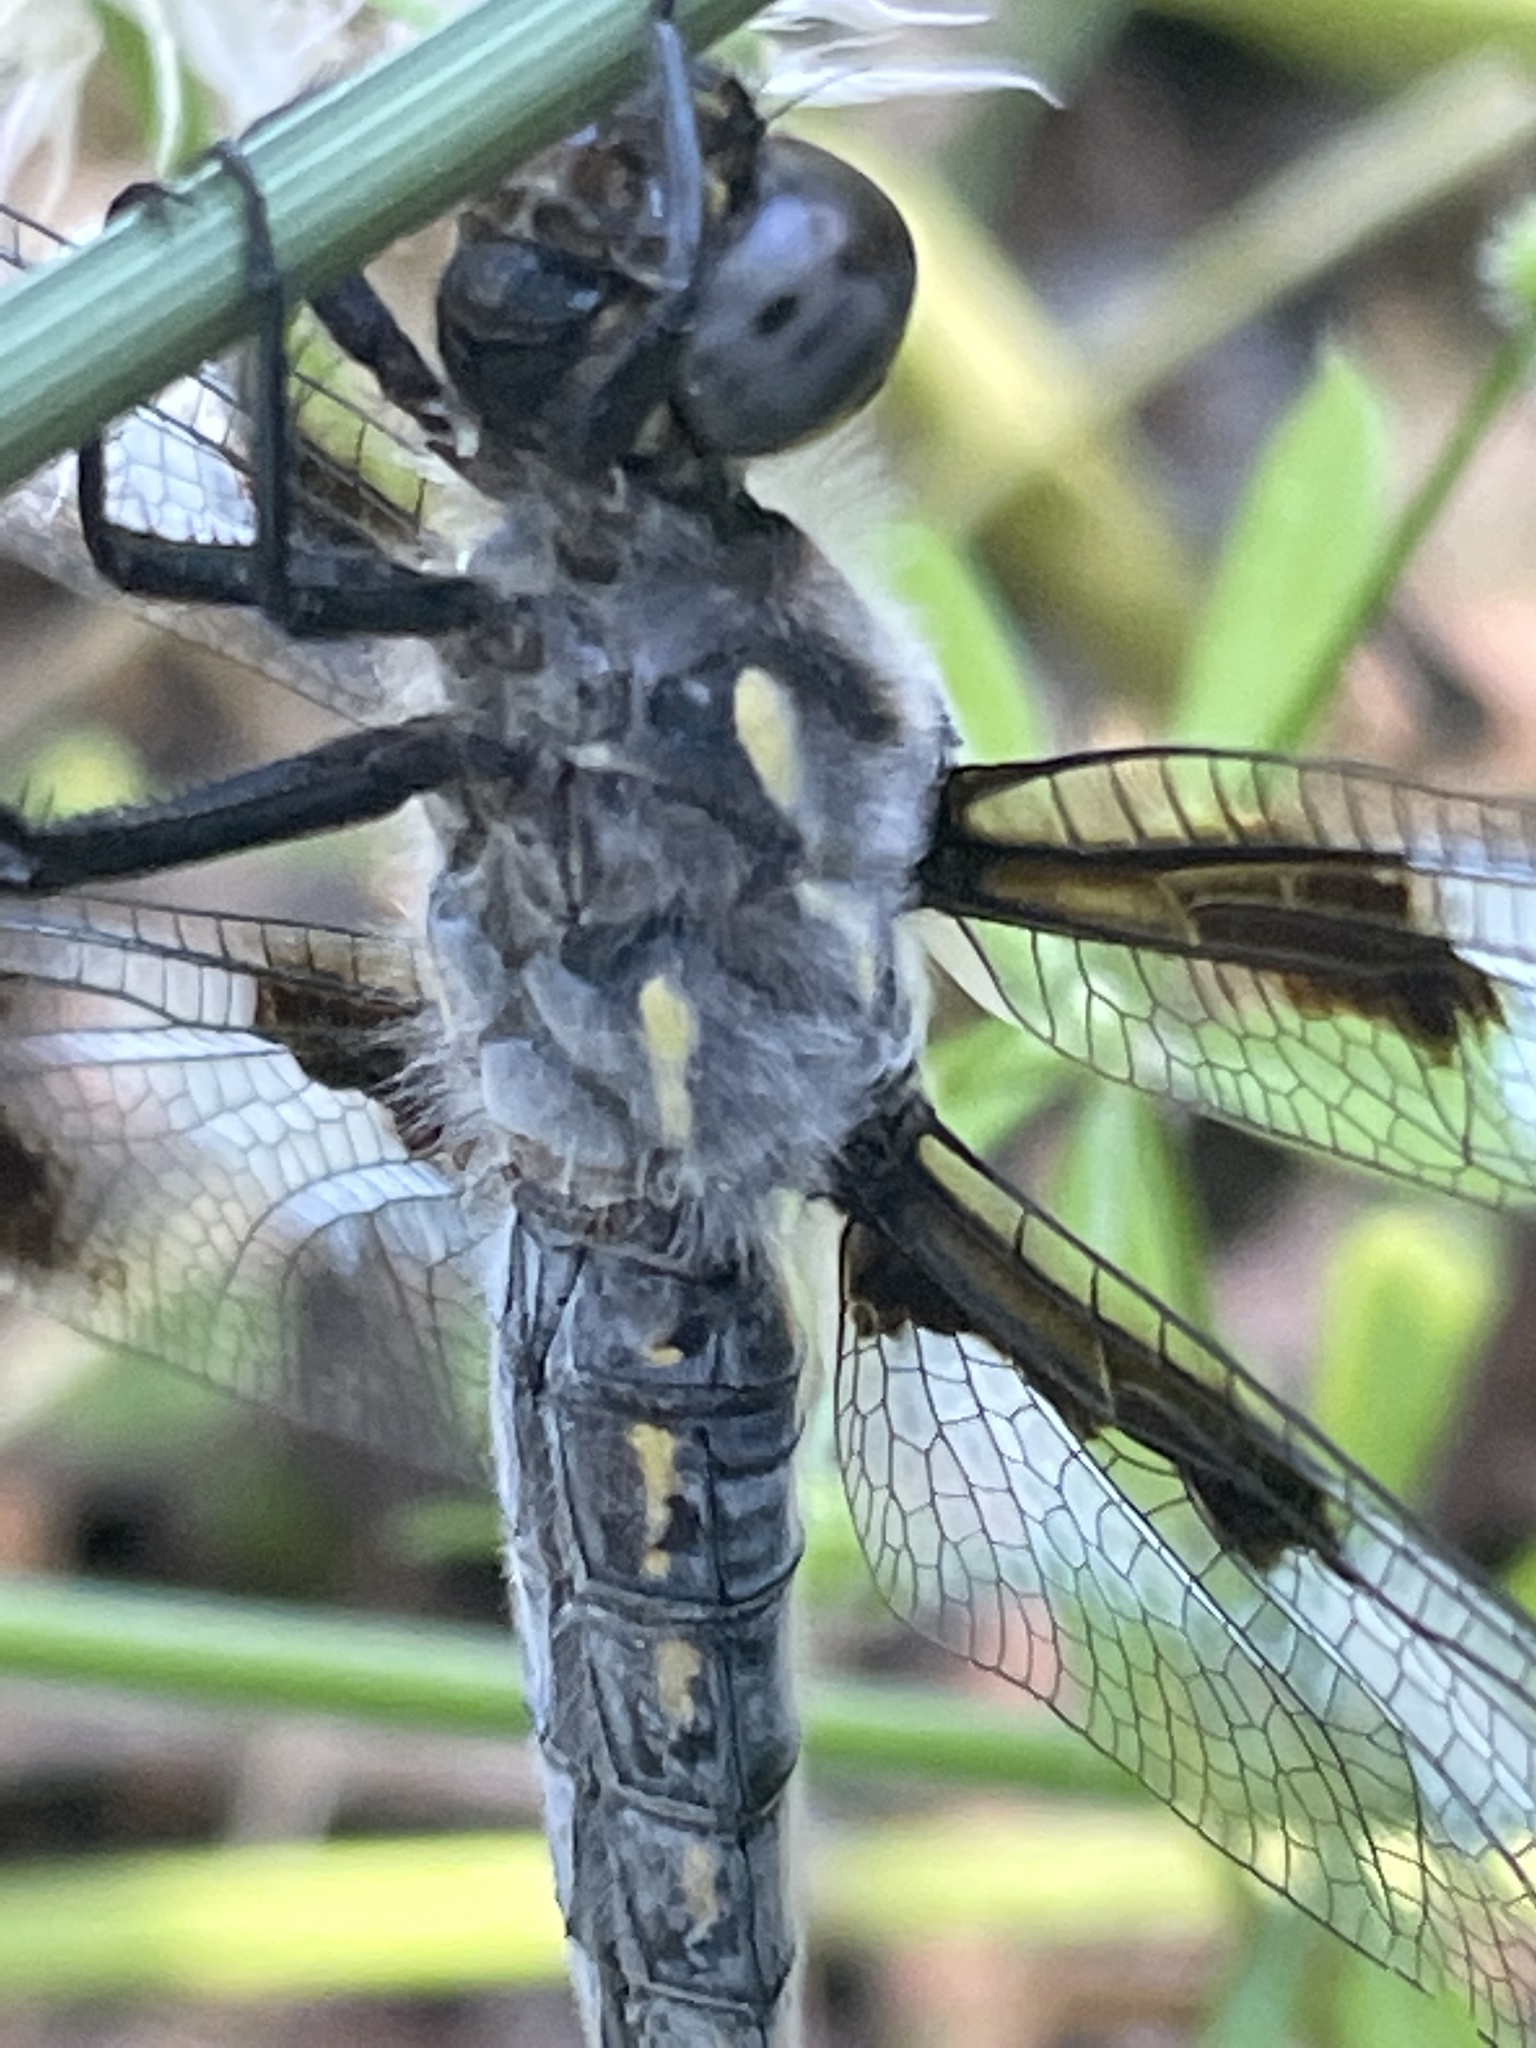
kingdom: Animalia
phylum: Arthropoda
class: Insecta
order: Odonata
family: Libellulidae
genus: Libellula
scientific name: Libellula forensis
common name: Eight-spotted skimmer
